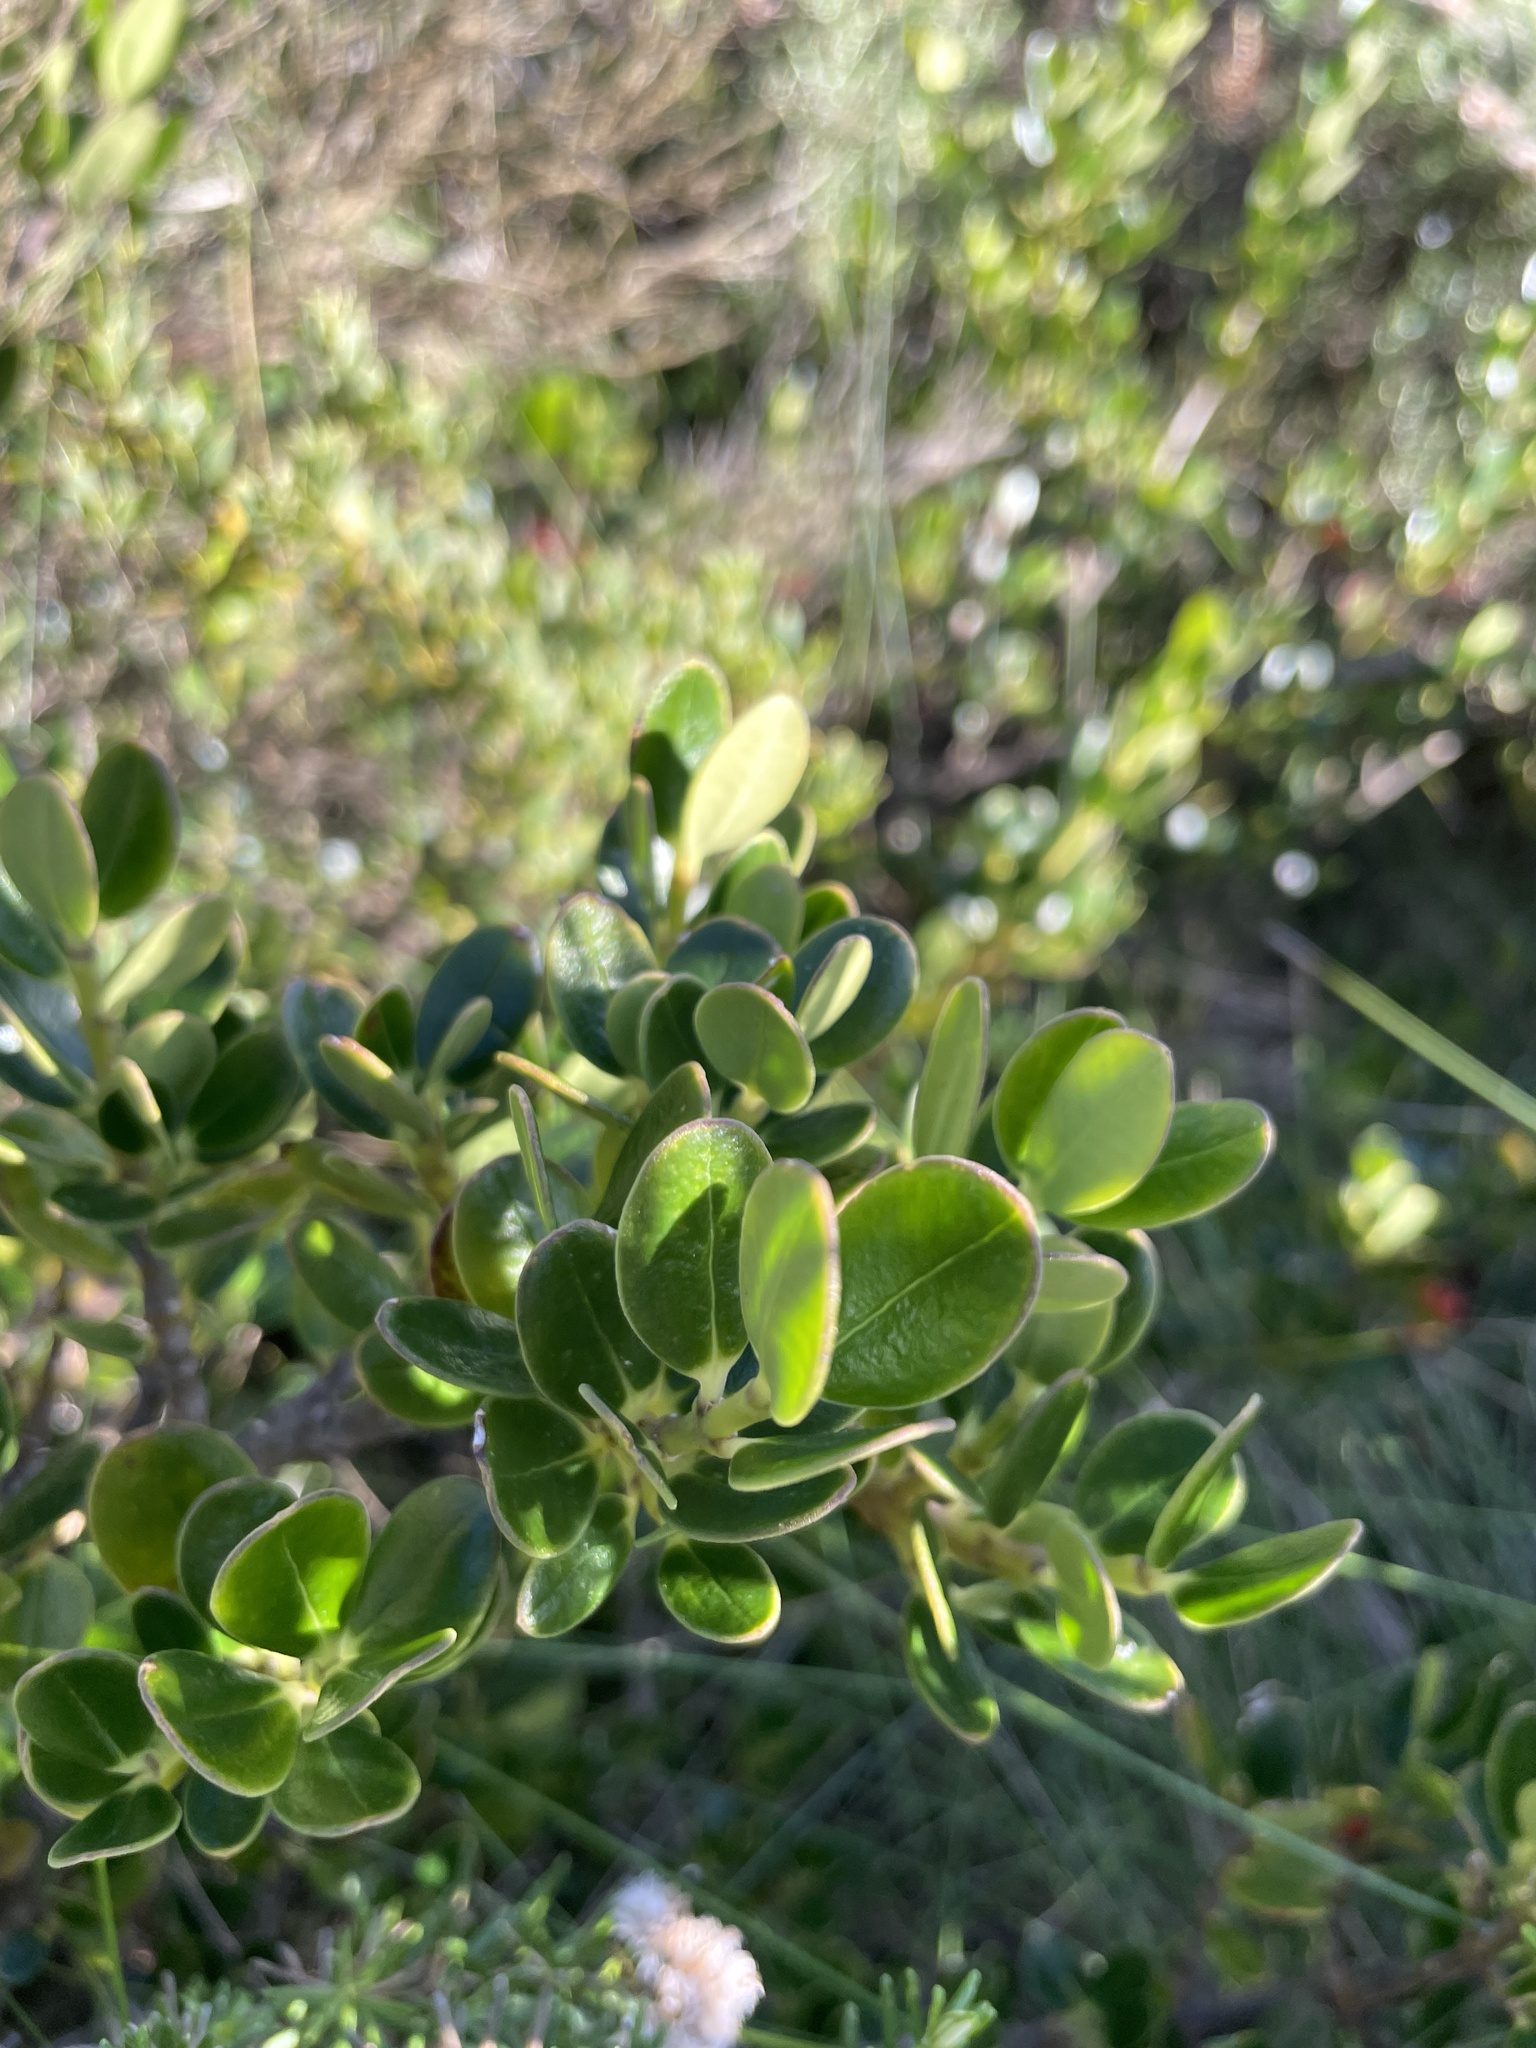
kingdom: Plantae
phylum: Tracheophyta
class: Magnoliopsida
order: Gentianales
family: Apocynaceae
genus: Alyxia
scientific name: Alyxia buxifolia
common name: Dysentery-bush
